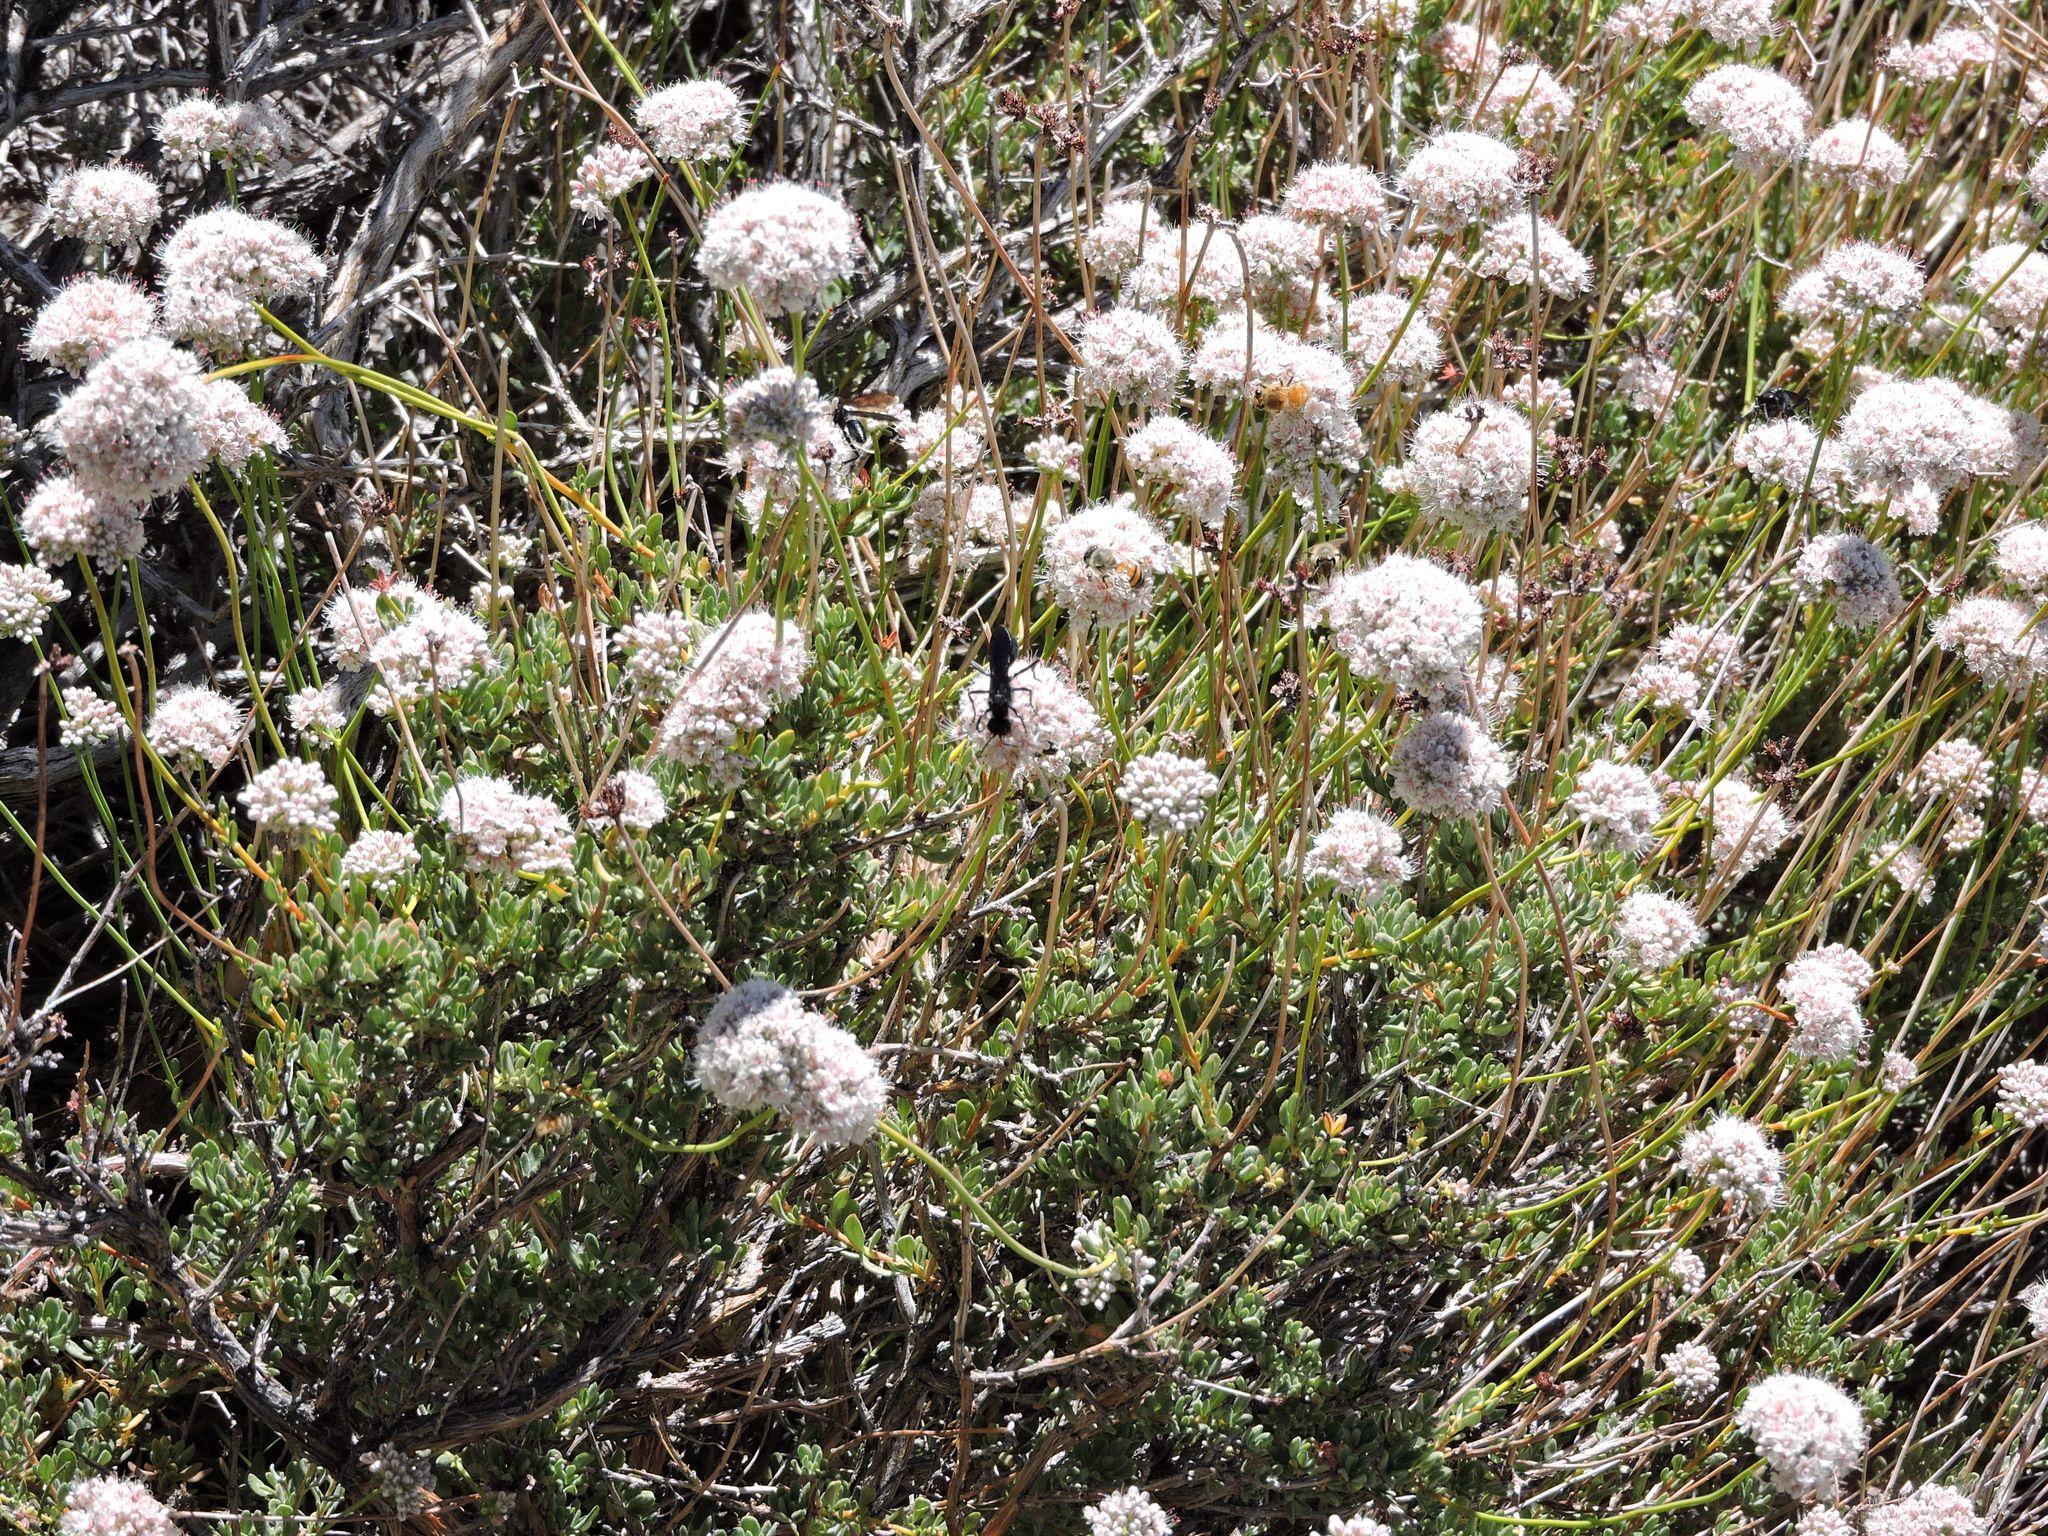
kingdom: Plantae
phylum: Tracheophyta
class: Magnoliopsida
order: Caryophyllales
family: Polygonaceae
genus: Eriogonum
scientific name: Eriogonum fasciculatum
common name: California wild buckwheat
